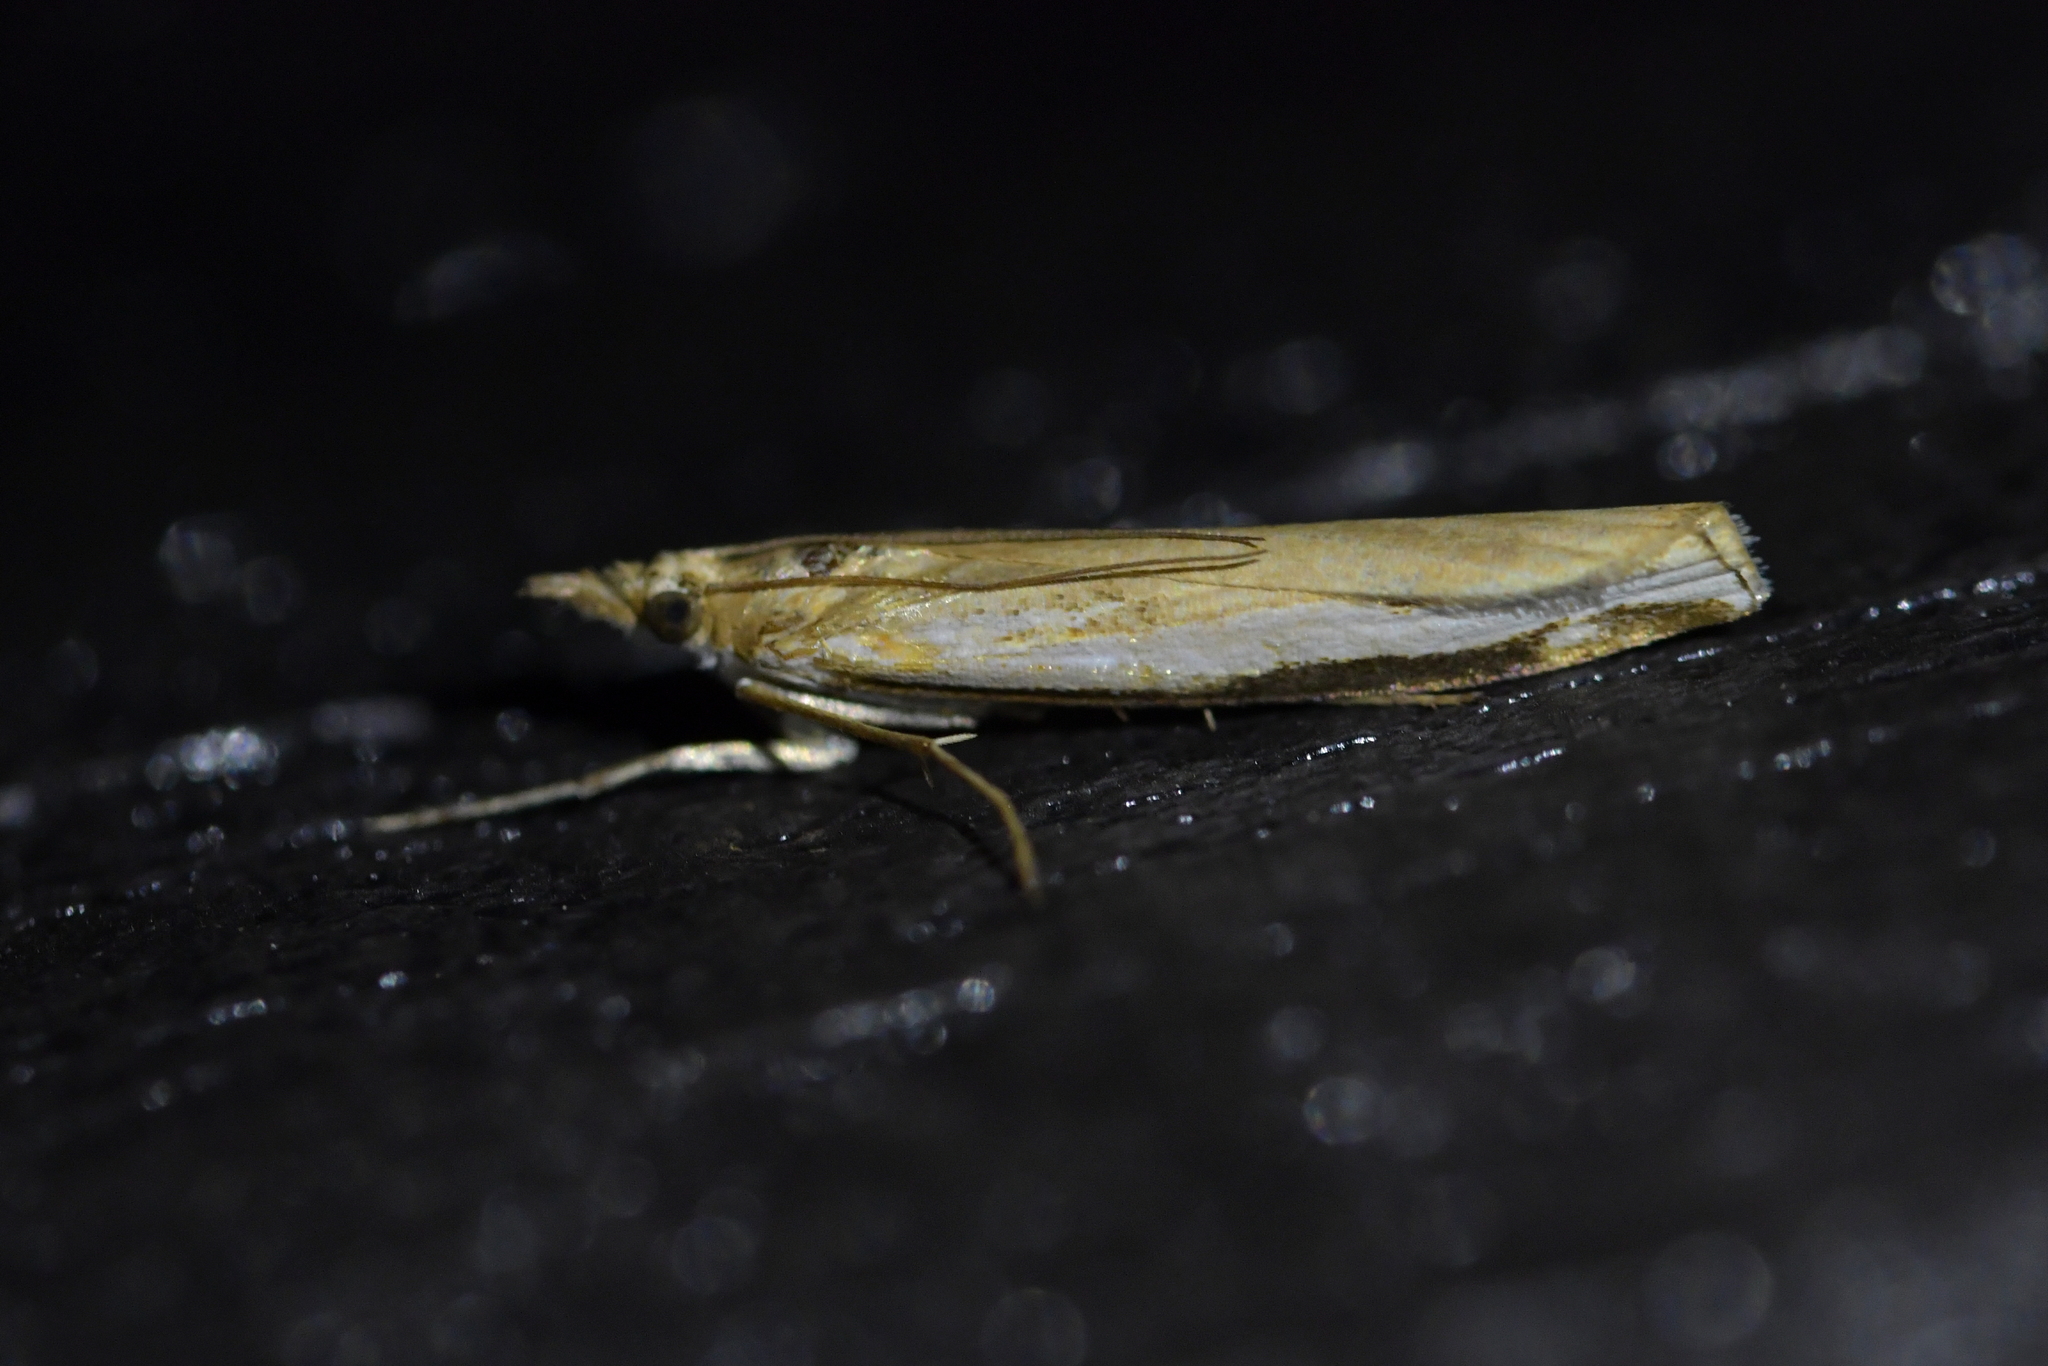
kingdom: Animalia
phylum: Arthropoda
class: Insecta
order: Lepidoptera
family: Crambidae
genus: Orocrambus
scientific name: Orocrambus flexuosellus
